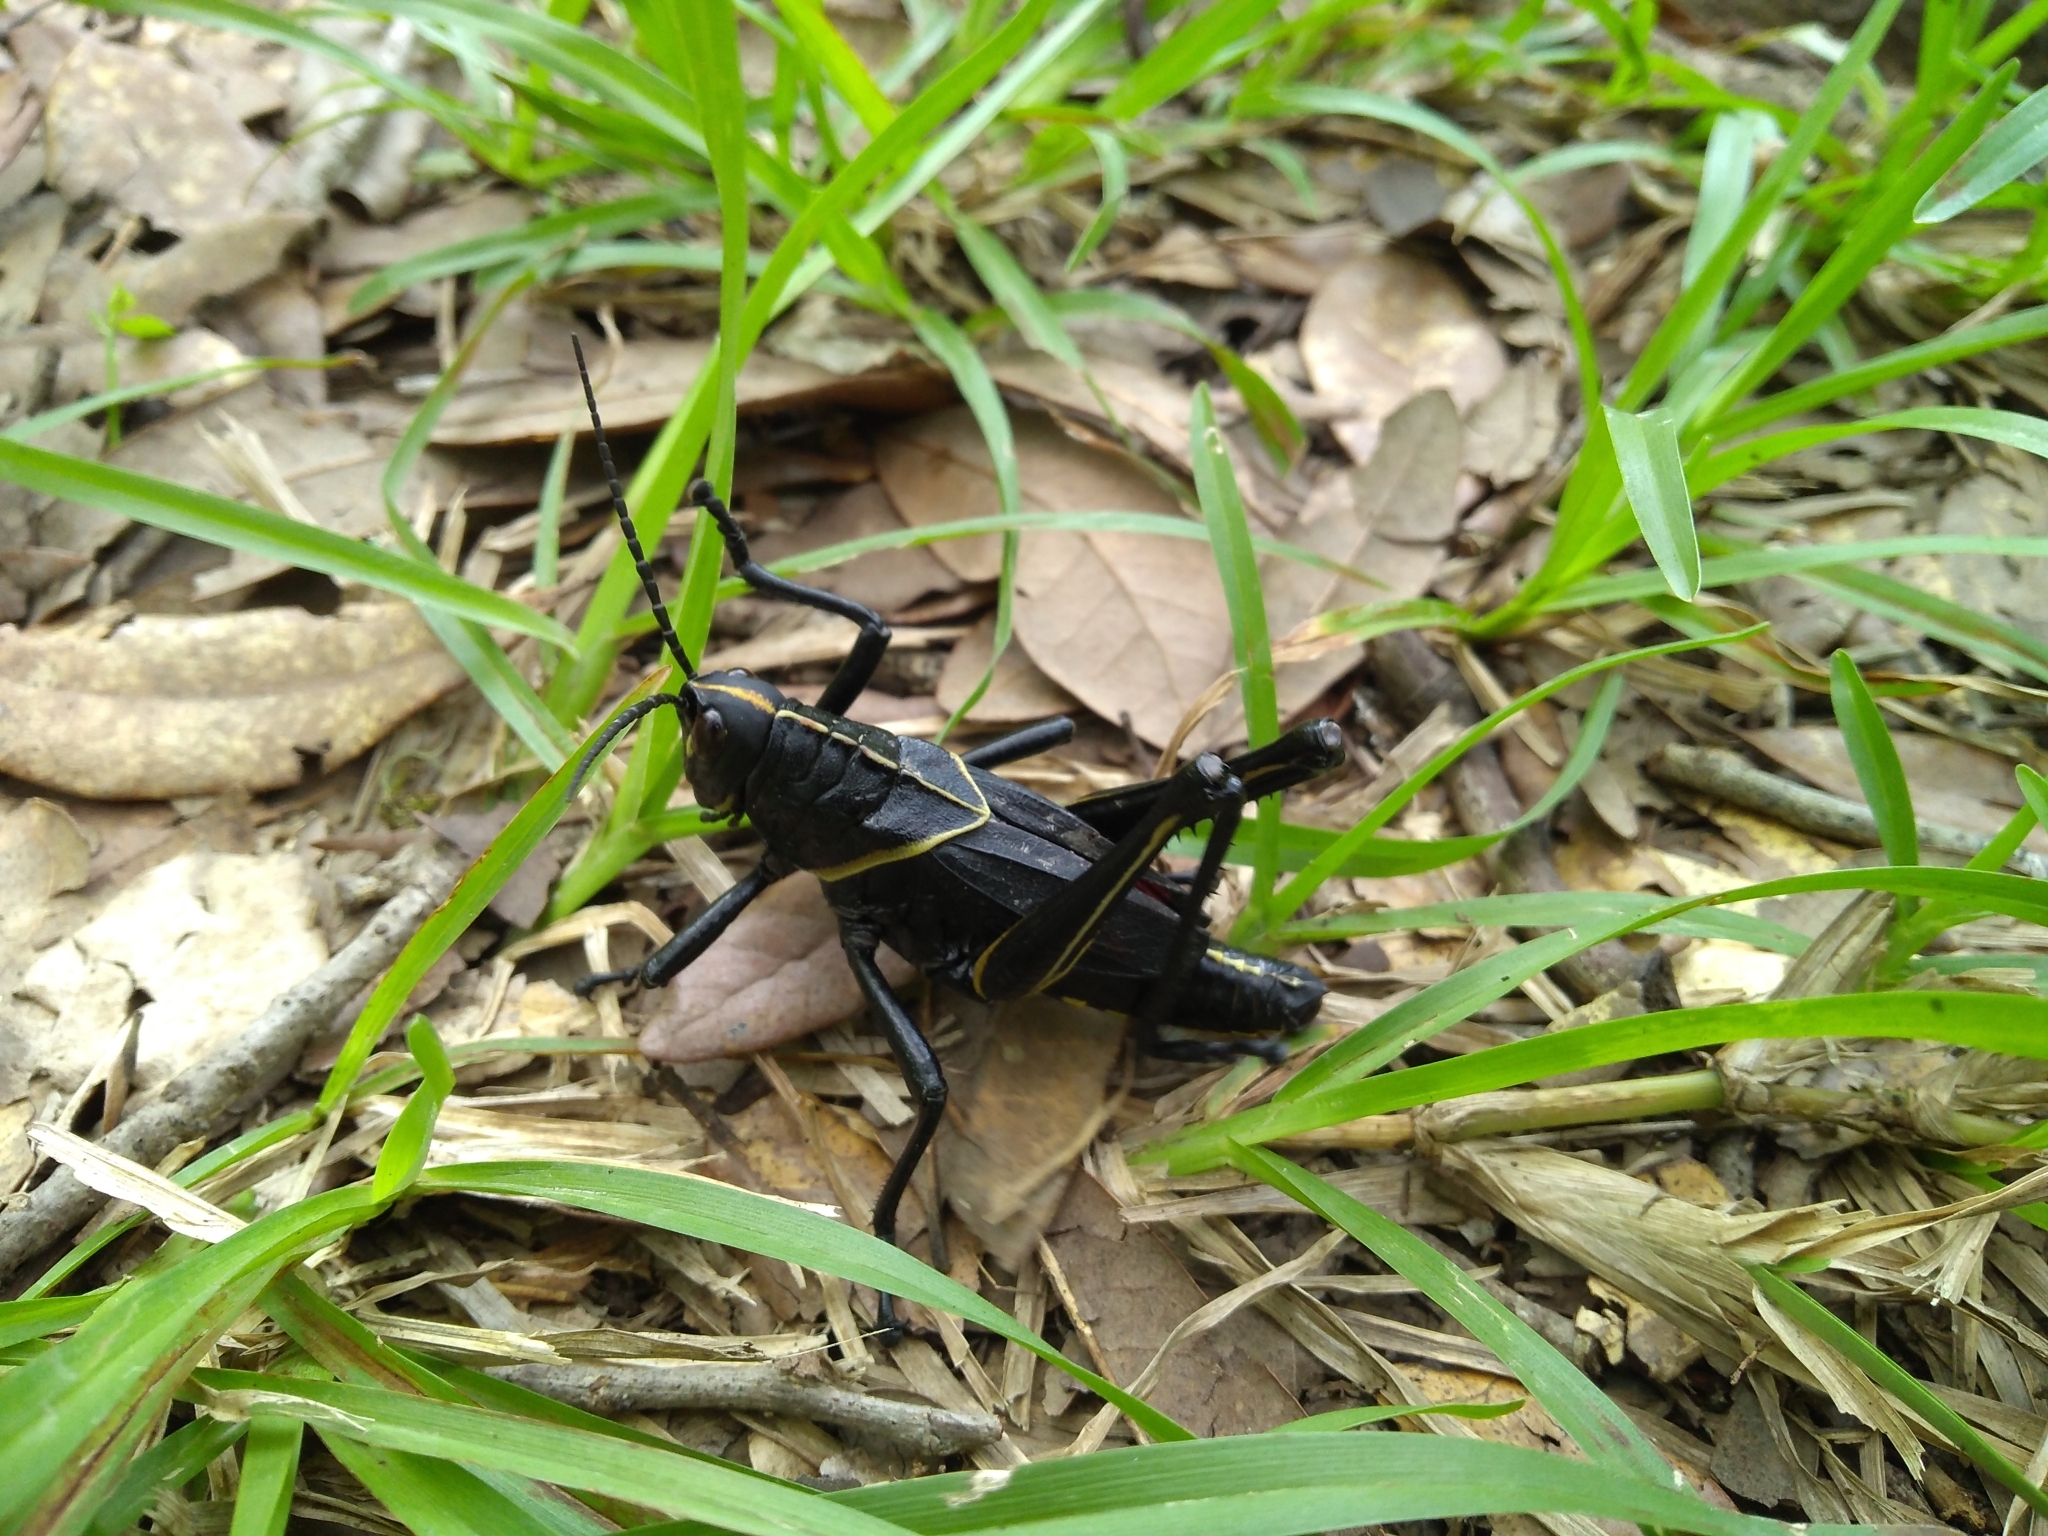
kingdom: Animalia
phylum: Arthropoda
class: Insecta
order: Orthoptera
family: Romaleidae
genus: Romalea
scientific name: Romalea microptera
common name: Eastern lubber grasshopper
